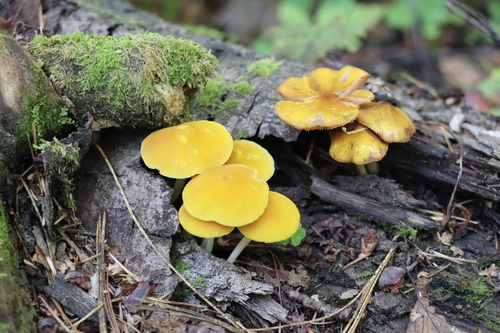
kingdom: Fungi
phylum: Basidiomycota
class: Agaricomycetes
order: Agaricales
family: Pluteaceae
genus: Pluteus
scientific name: Pluteus chrysophlebius
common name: Yellow deer mushroom
